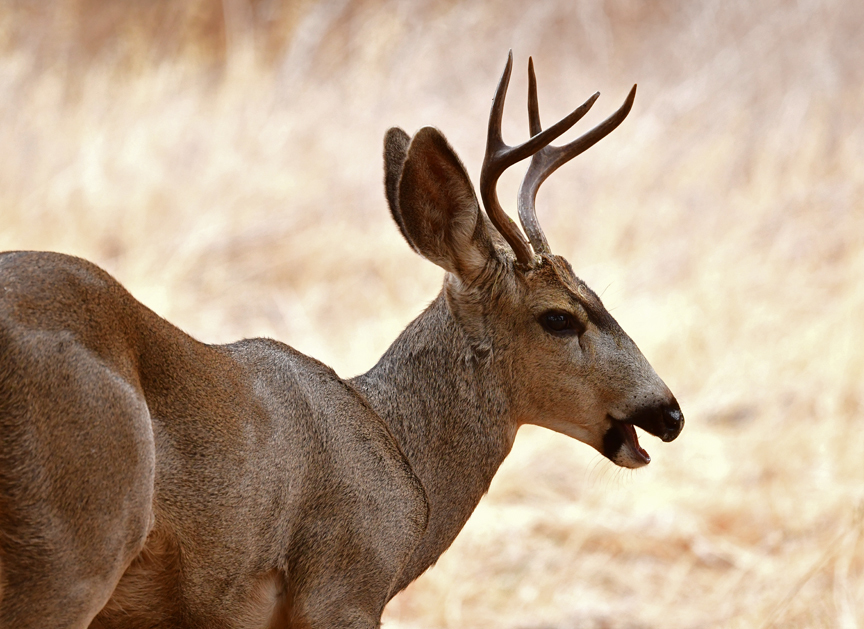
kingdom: Animalia
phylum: Chordata
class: Mammalia
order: Artiodactyla
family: Cervidae
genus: Odocoileus
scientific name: Odocoileus hemionus
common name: Mule deer
